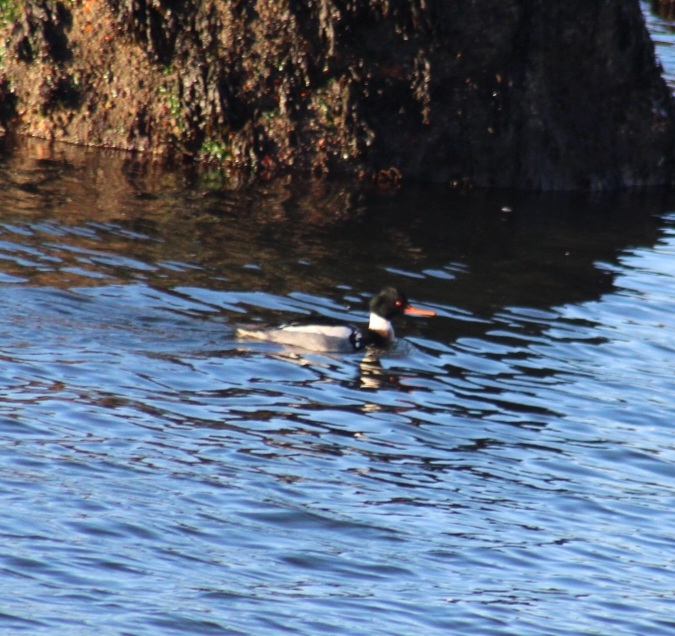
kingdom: Animalia
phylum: Chordata
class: Aves
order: Anseriformes
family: Anatidae
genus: Mergus
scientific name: Mergus serrator
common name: Red-breasted merganser
